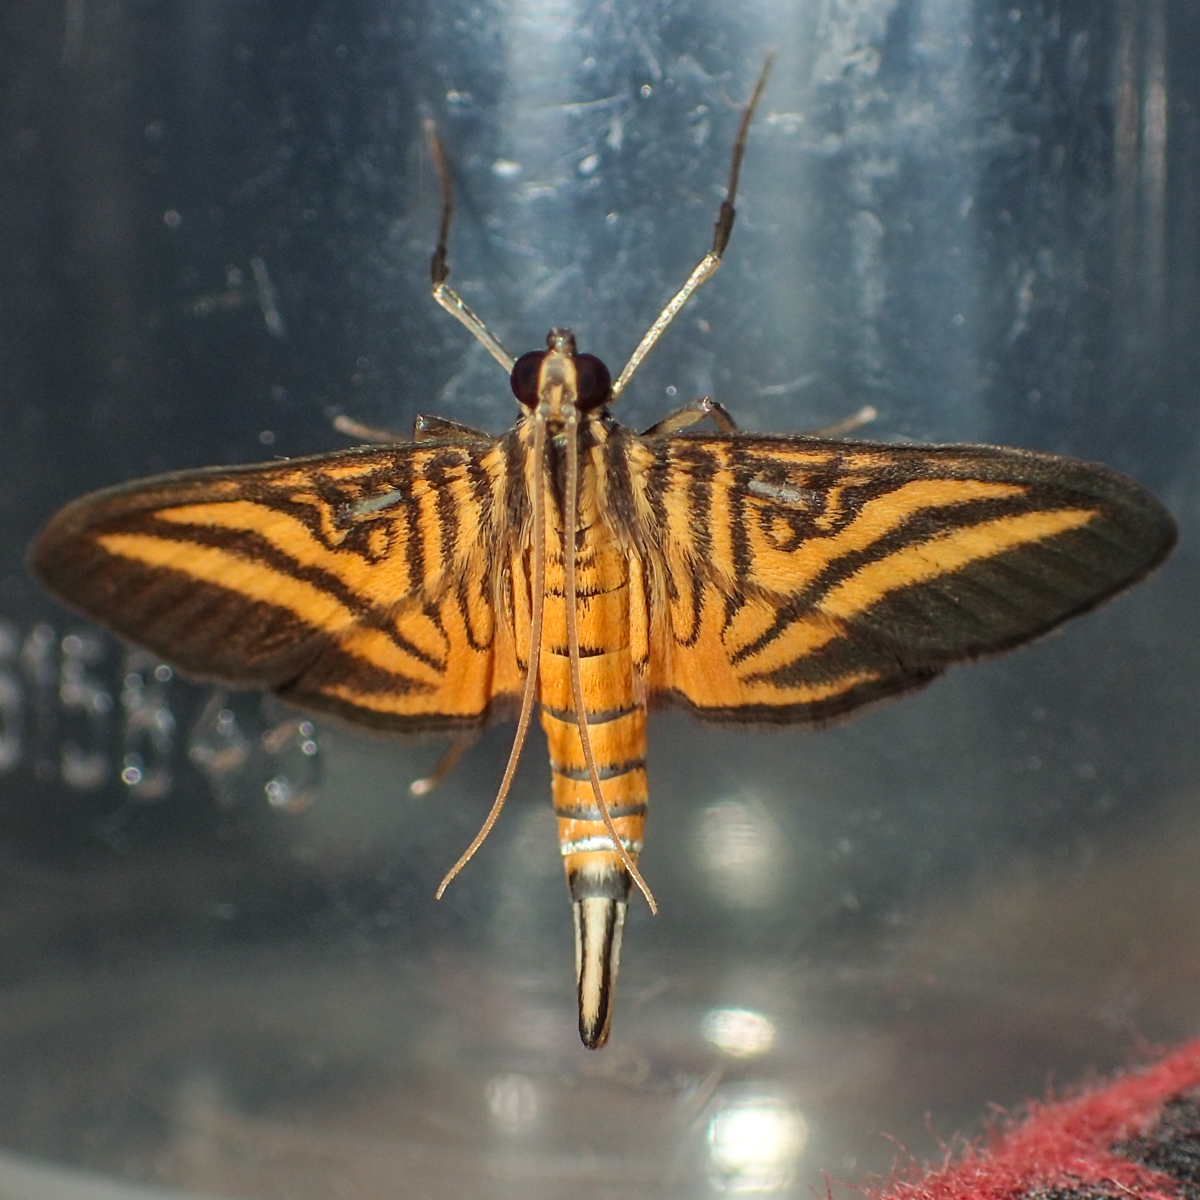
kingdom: Animalia
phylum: Arthropoda
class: Insecta
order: Lepidoptera
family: Crambidae
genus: Tatobotys
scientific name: Tatobotys varanesalis
